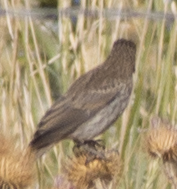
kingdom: Animalia
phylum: Chordata
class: Aves
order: Passeriformes
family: Fringillidae
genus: Haemorhous
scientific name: Haemorhous mexicanus
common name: House finch
